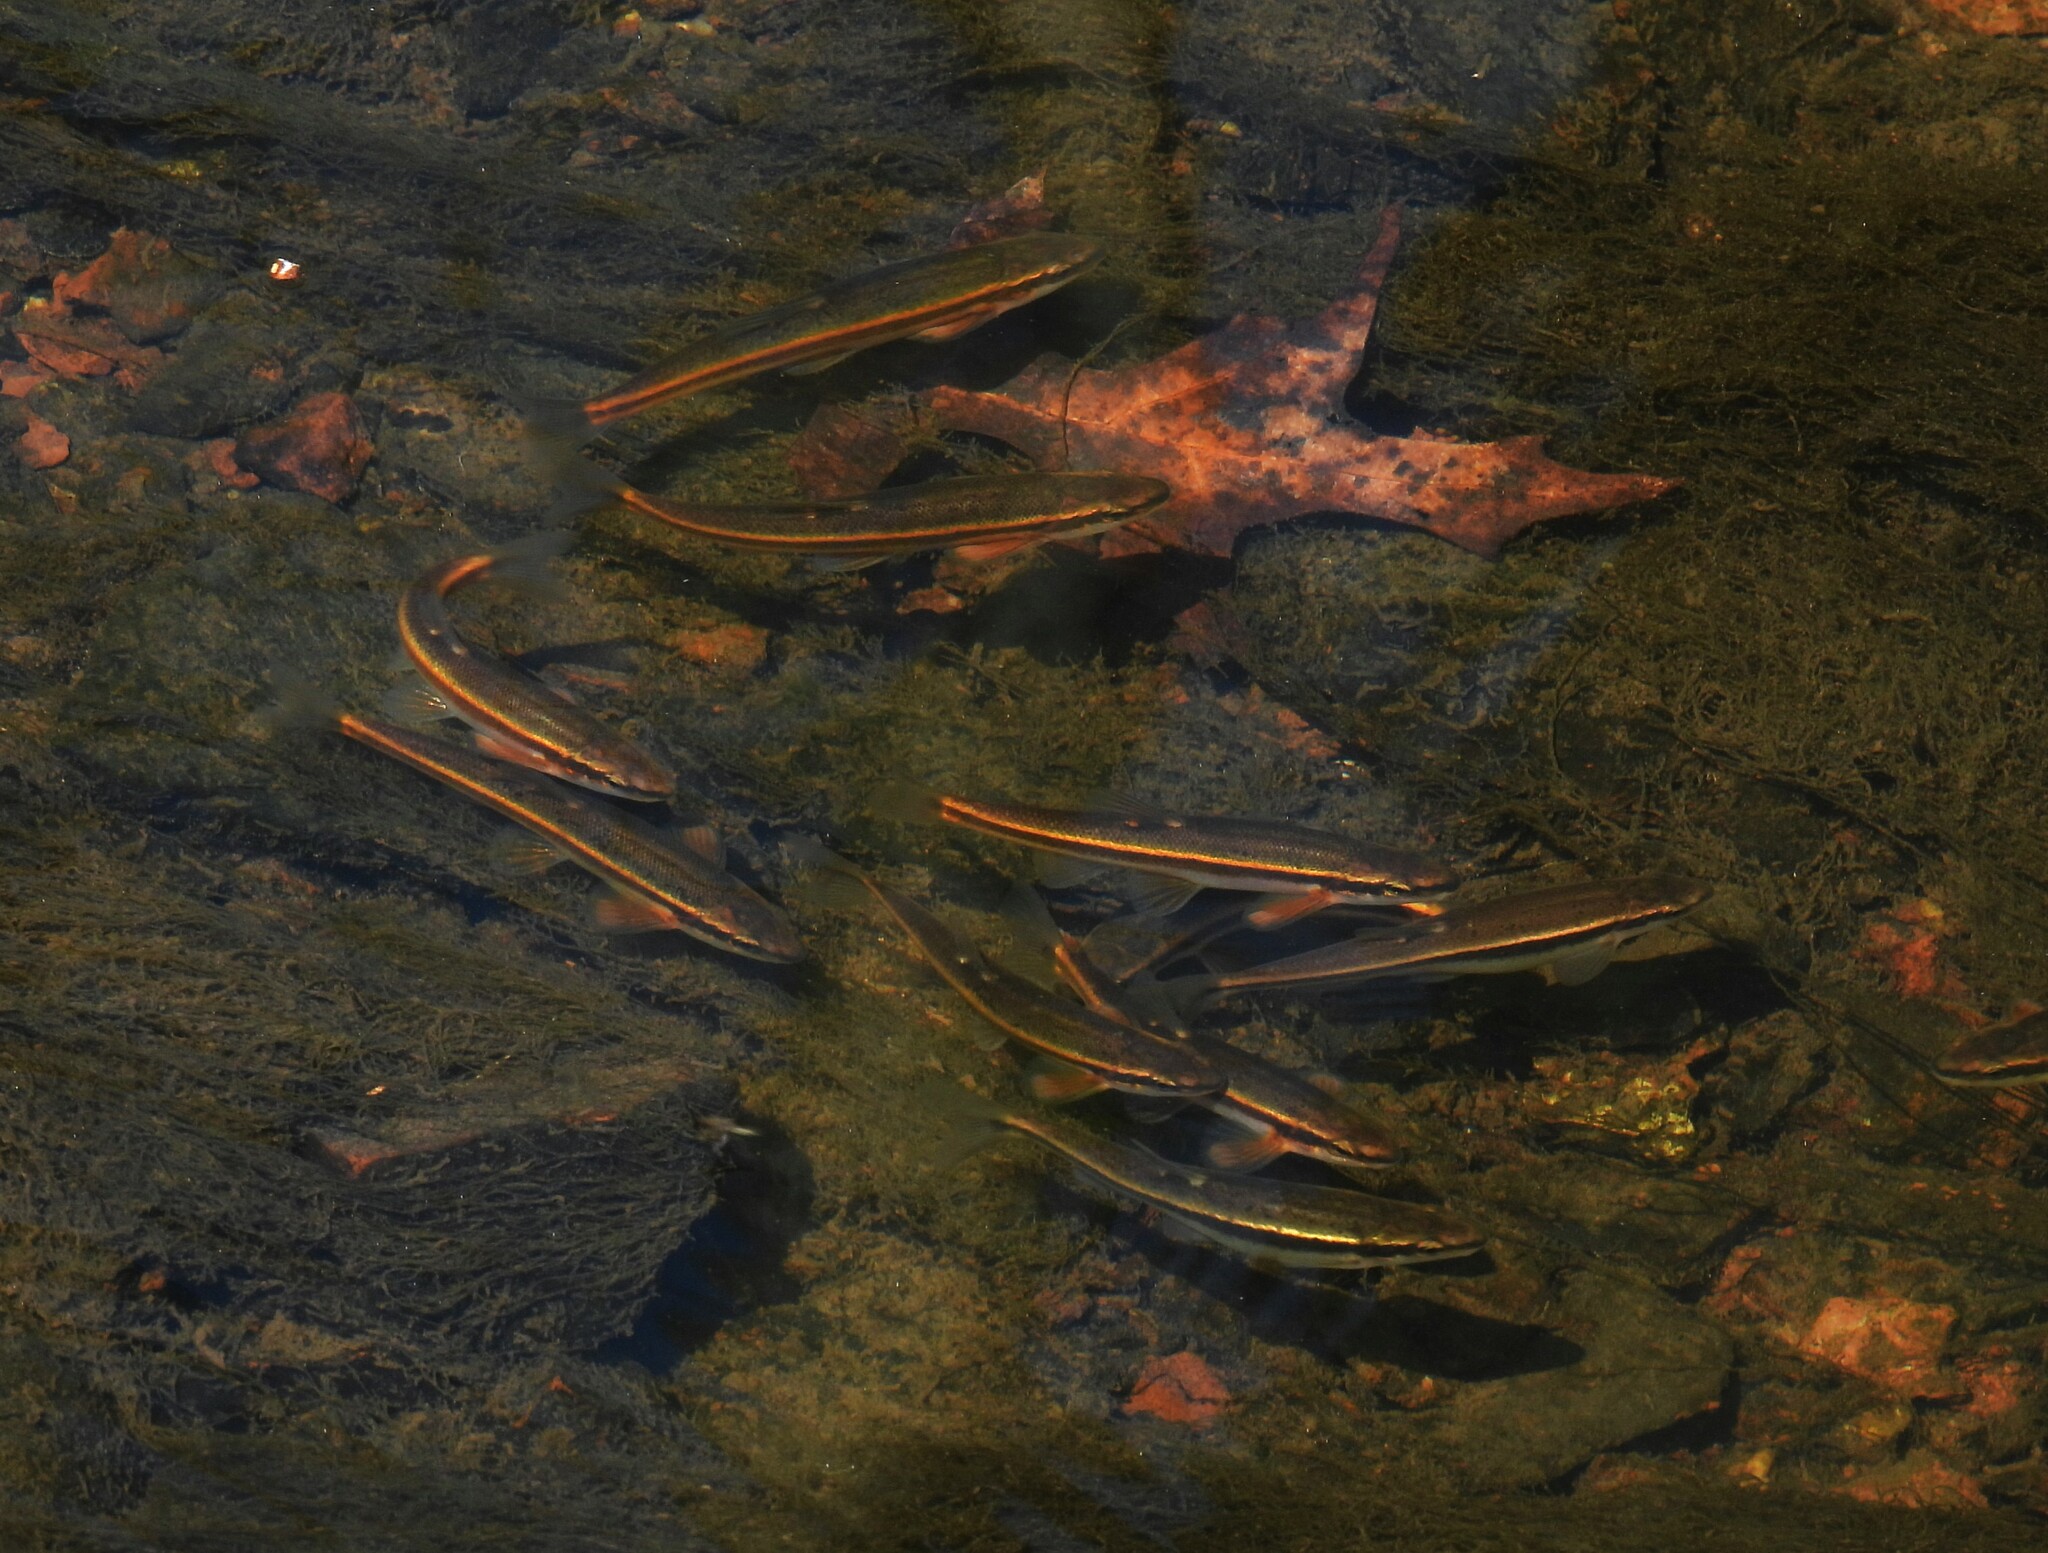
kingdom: Animalia
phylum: Chordata
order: Cypriniformes
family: Cyprinidae
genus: Rhinichthys
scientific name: Rhinichthys atratulus
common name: Eastern blacknose dace
